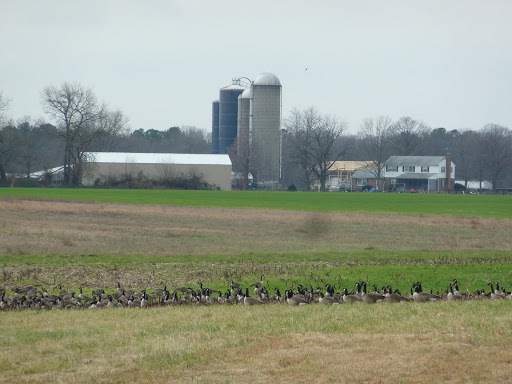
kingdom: Animalia
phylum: Chordata
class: Aves
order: Anseriformes
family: Anatidae
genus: Branta
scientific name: Branta canadensis
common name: Canada goose
